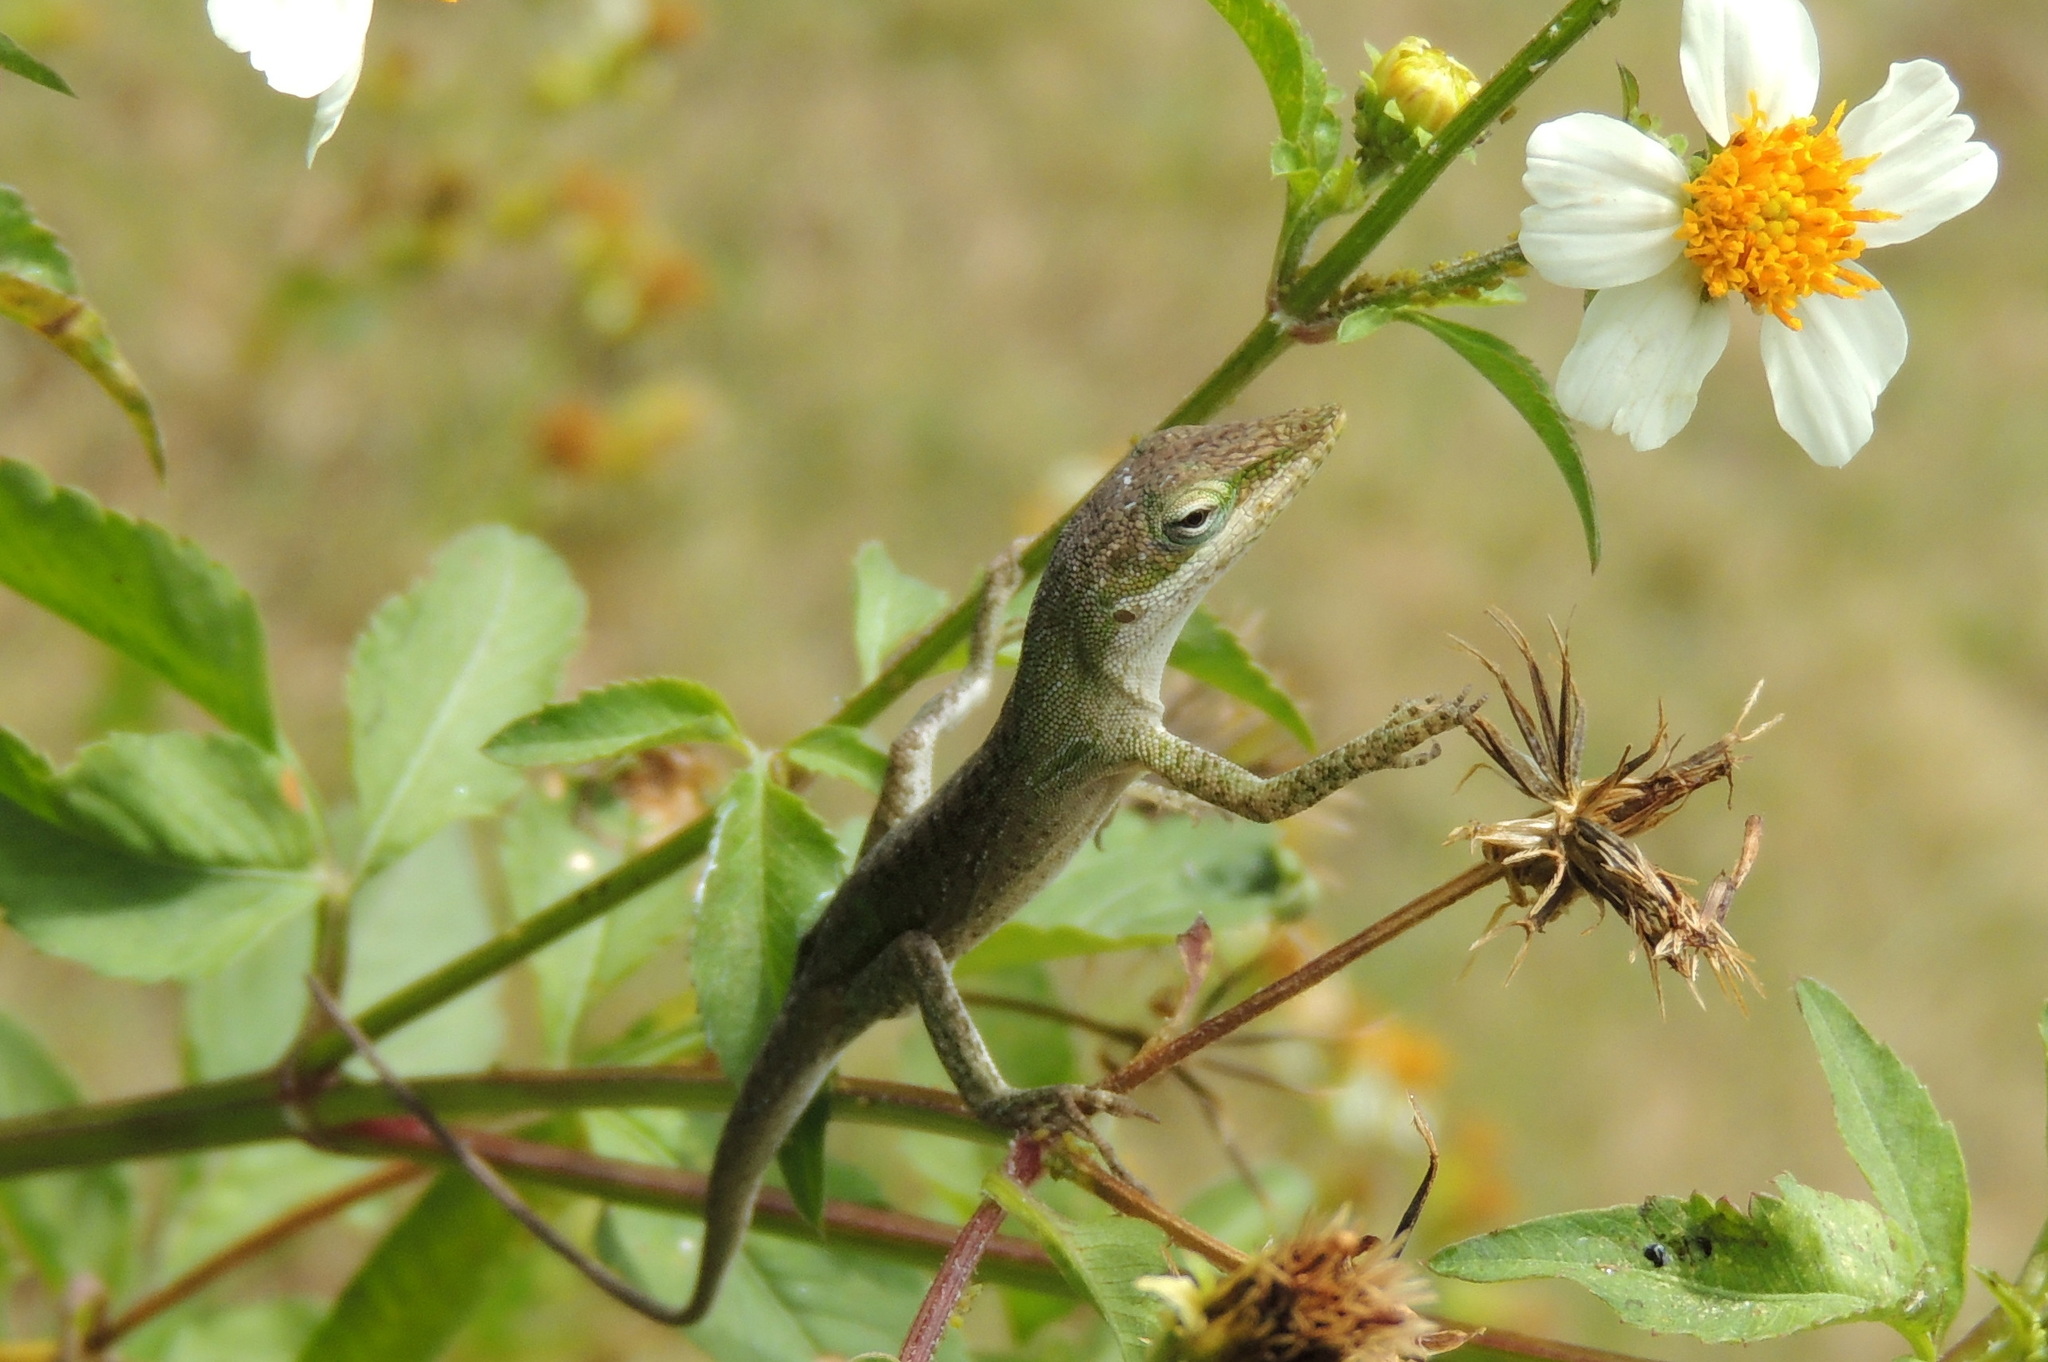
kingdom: Animalia
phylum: Chordata
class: Squamata
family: Dactyloidae
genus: Anolis
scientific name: Anolis carolinensis
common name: Green anole
